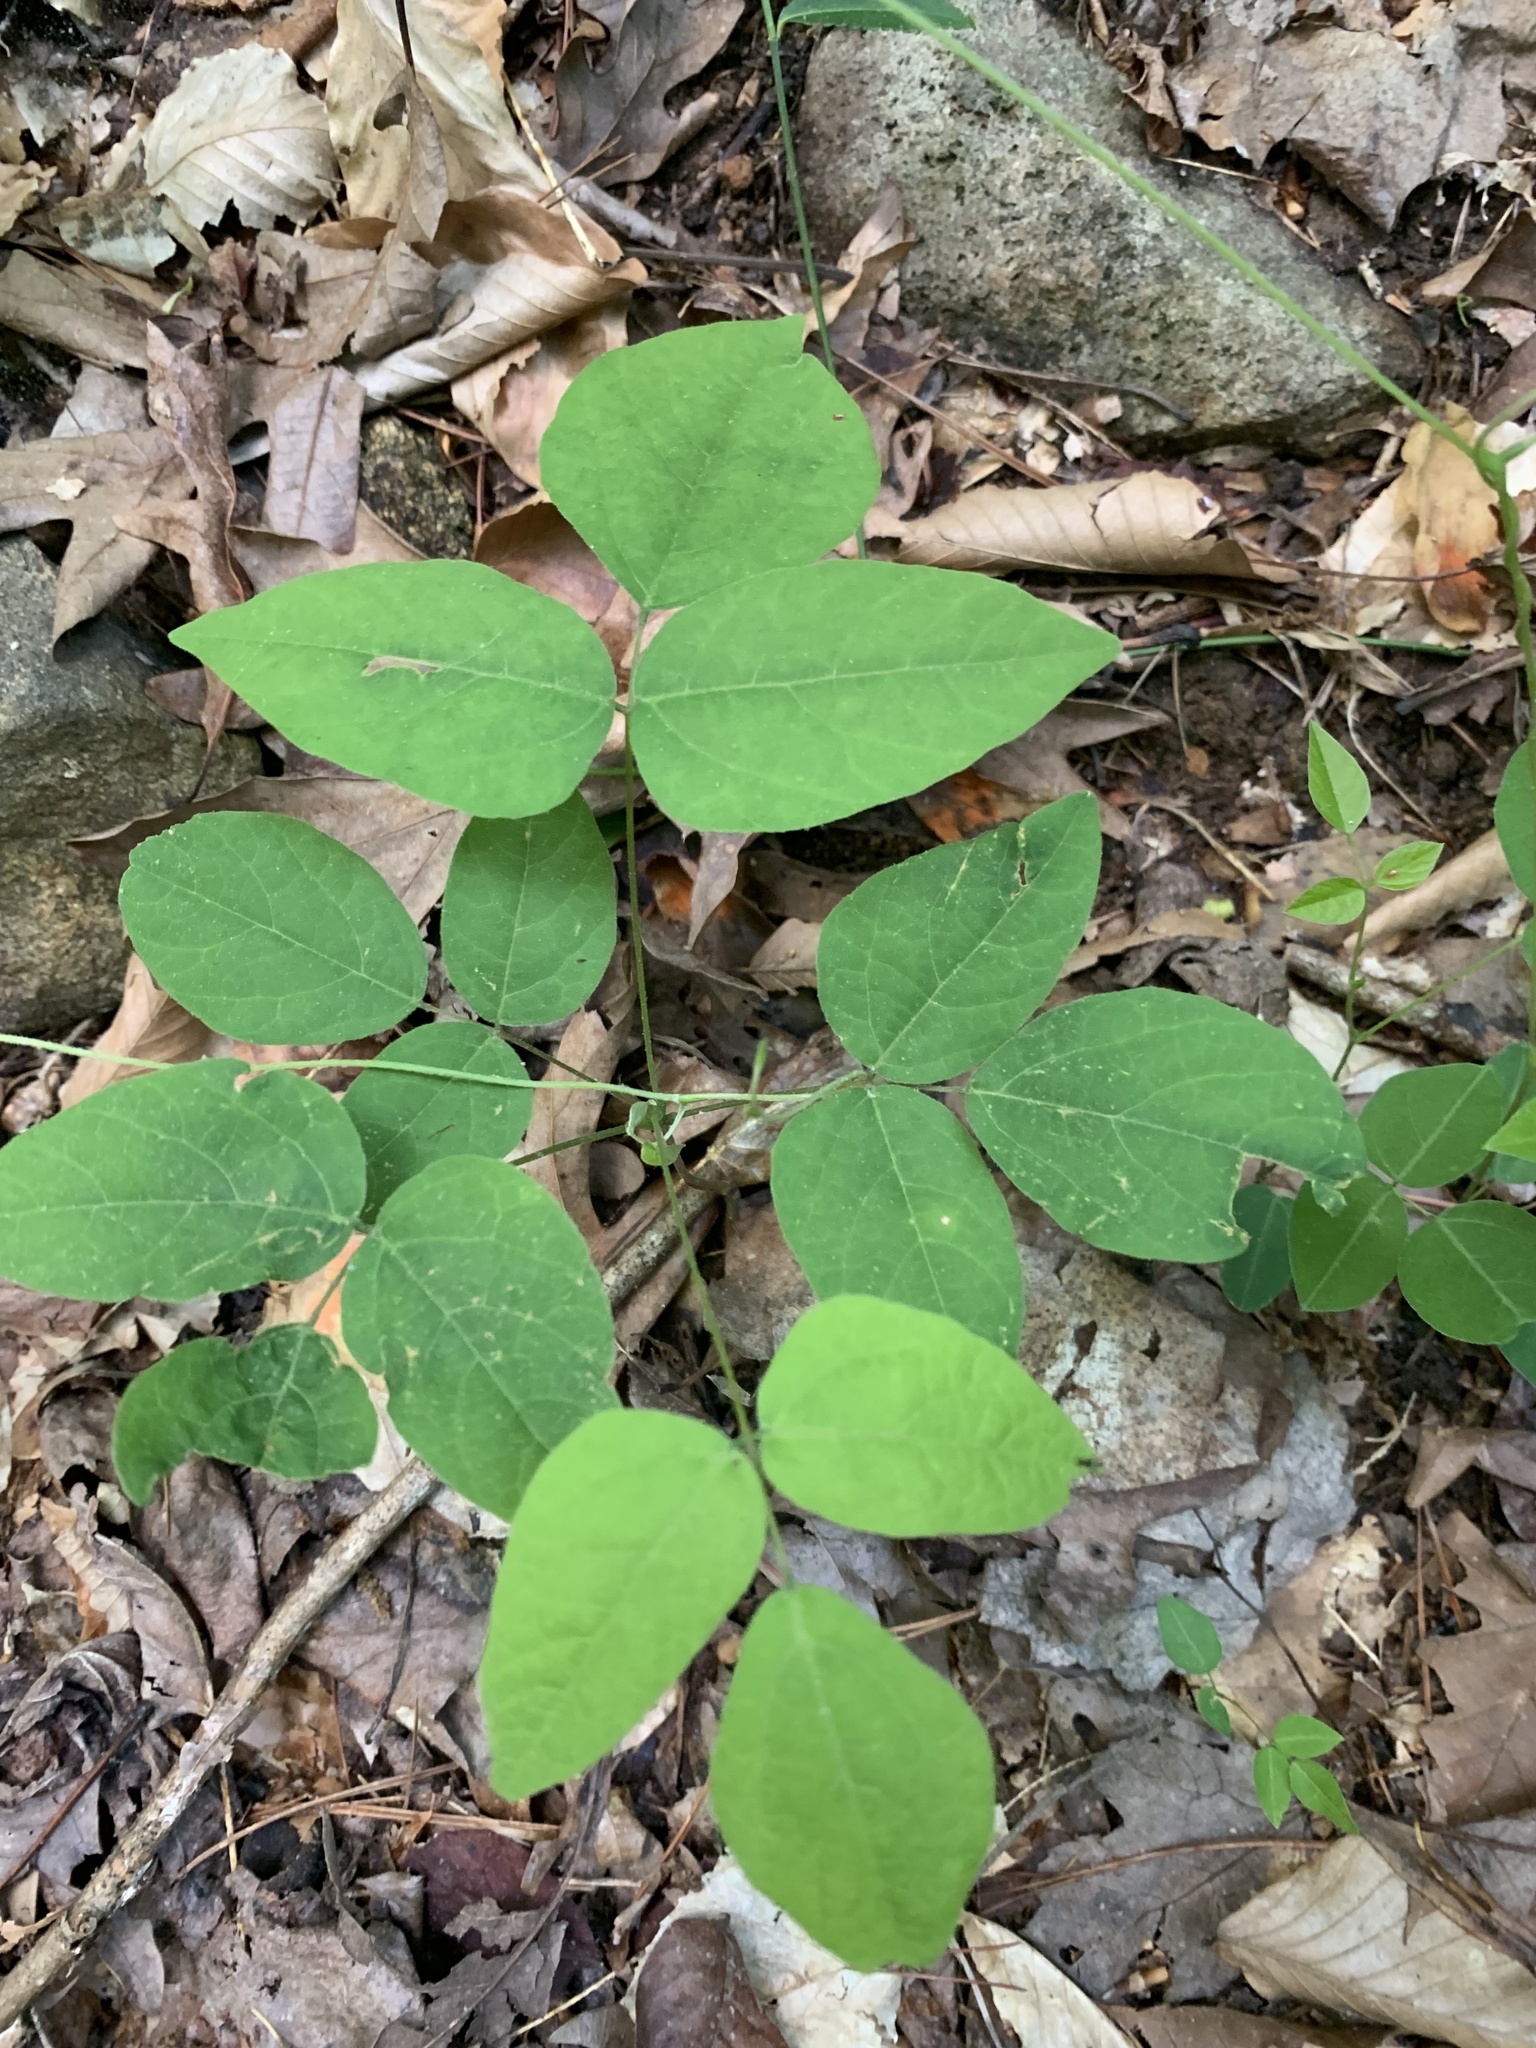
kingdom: Plantae
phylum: Tracheophyta
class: Magnoliopsida
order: Fabales
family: Fabaceae
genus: Hylodesmum
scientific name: Hylodesmum nudiflorum
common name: Bare-stemmed tick-trefoil
